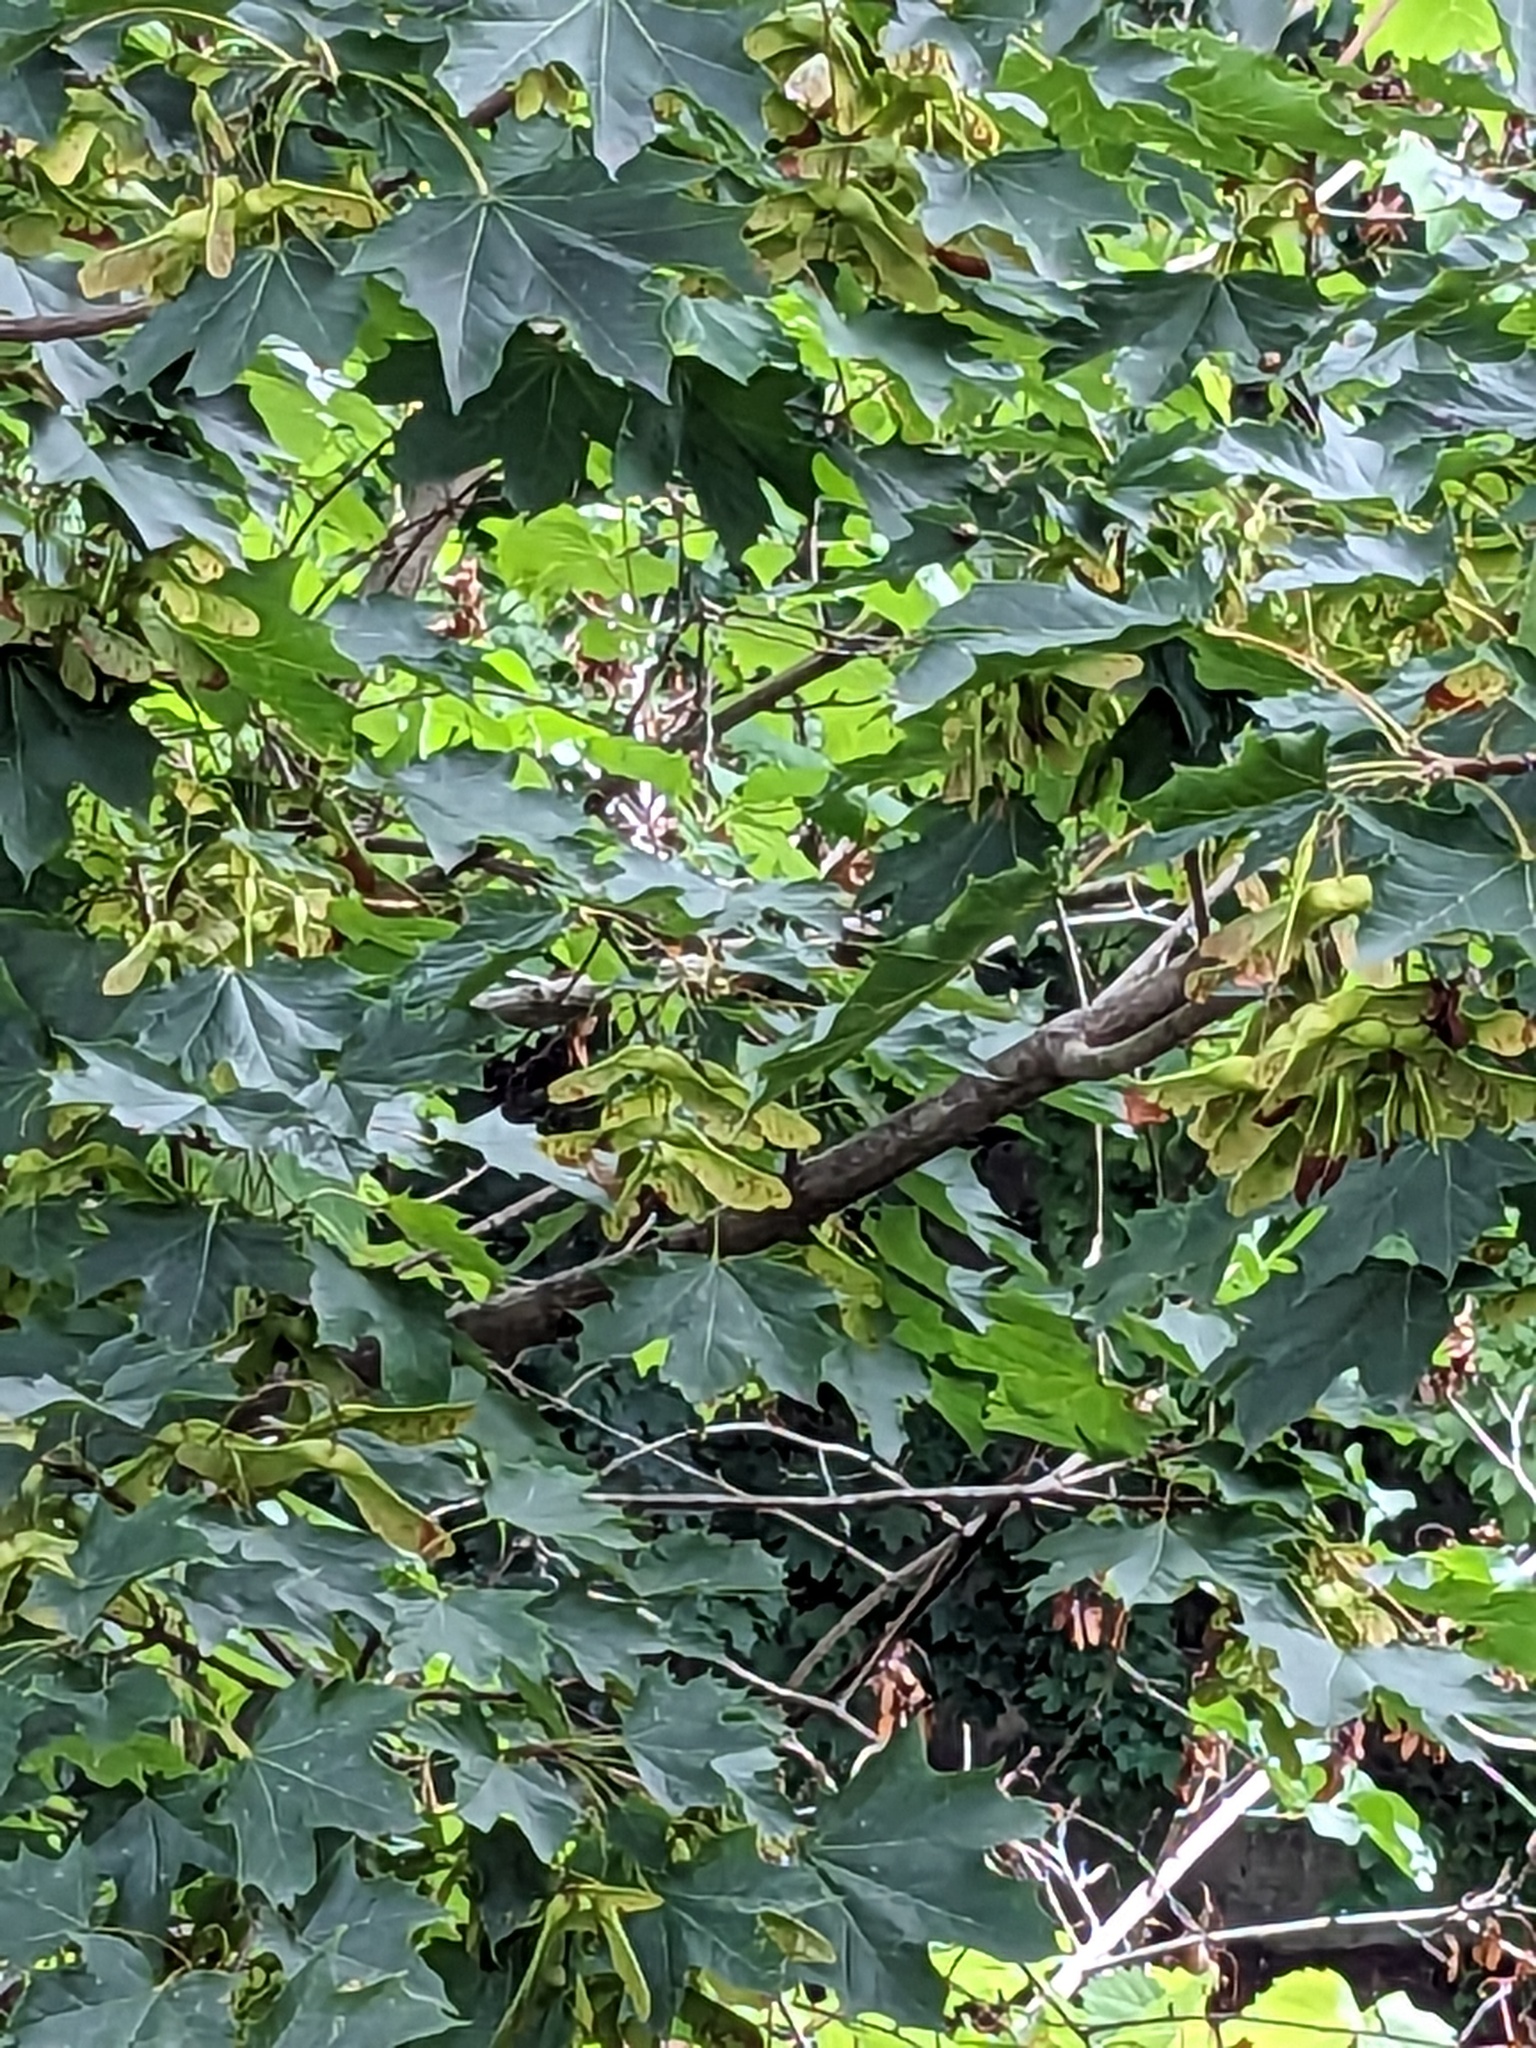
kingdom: Plantae
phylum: Tracheophyta
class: Magnoliopsida
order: Sapindales
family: Sapindaceae
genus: Acer
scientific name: Acer platanoides
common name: Norway maple
